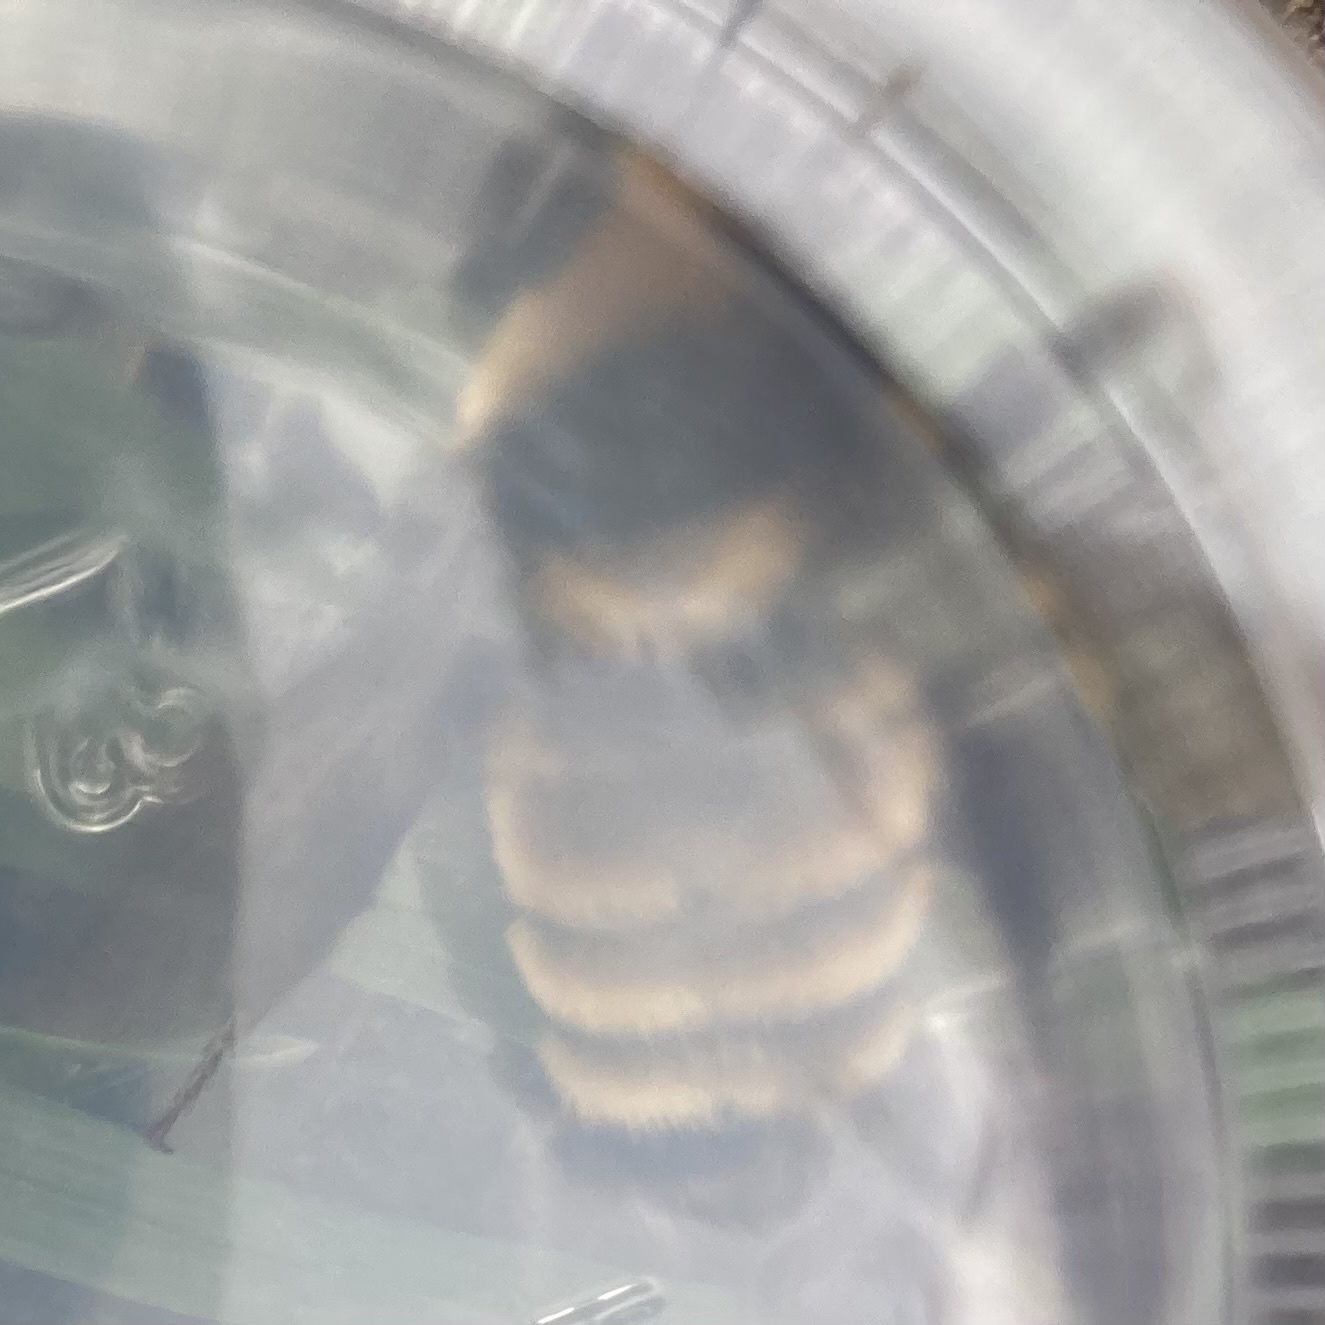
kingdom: Animalia
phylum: Arthropoda
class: Insecta
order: Hymenoptera
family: Apidae
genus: Bombus
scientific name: Bombus borealis
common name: Northern amber bumble bee
